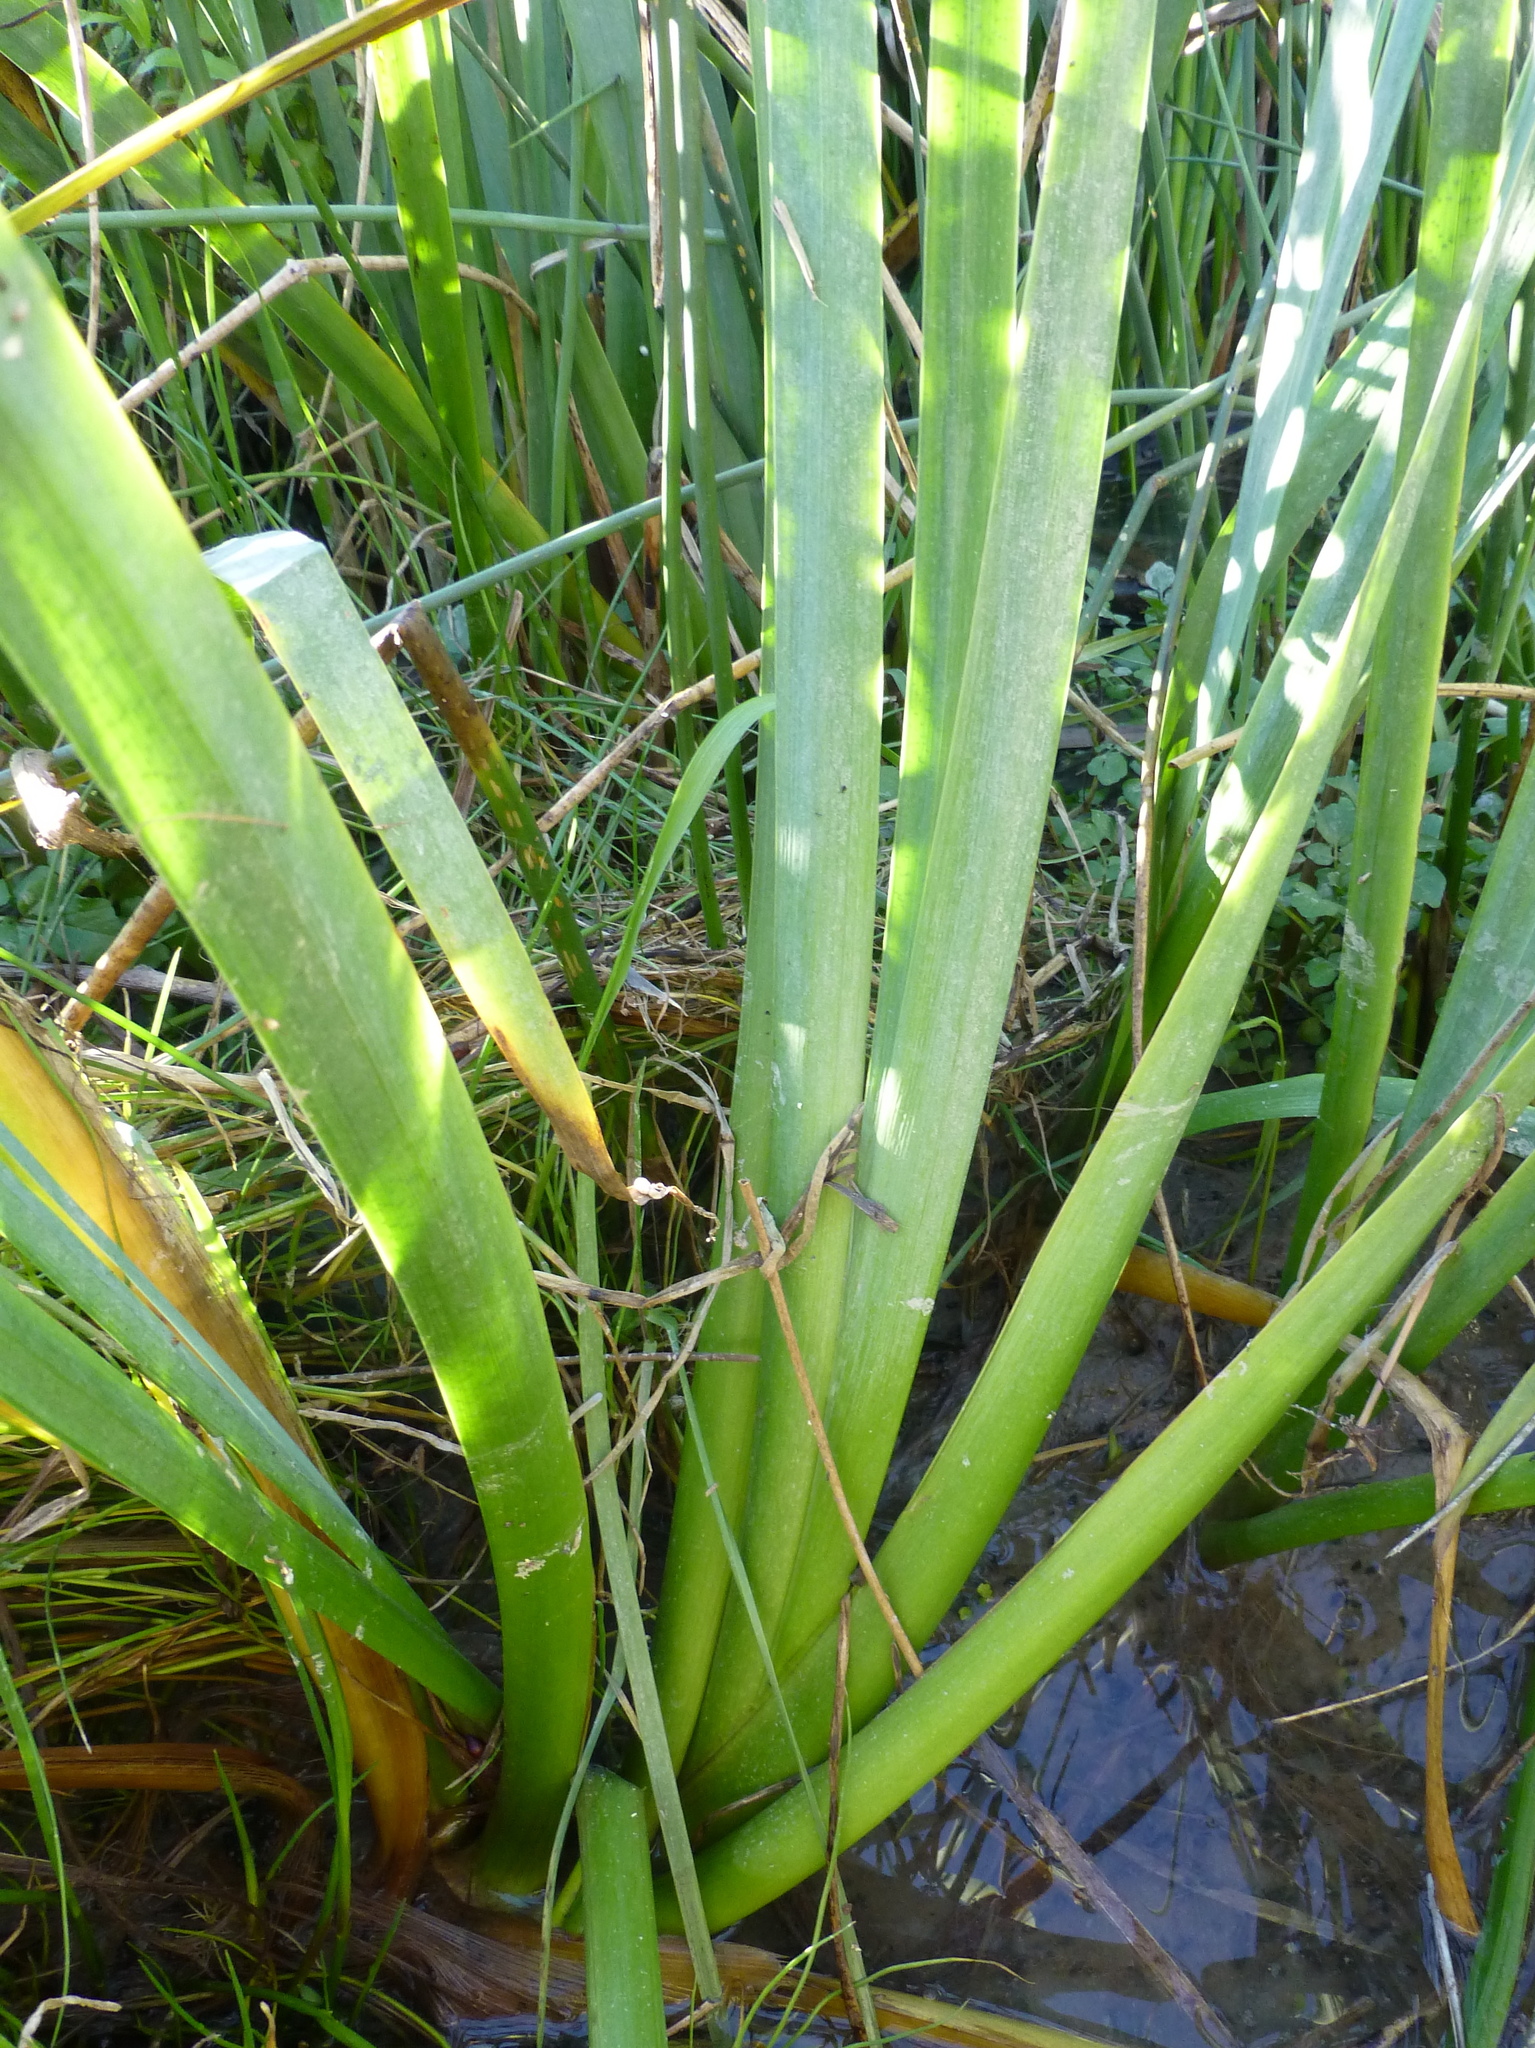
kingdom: Plantae
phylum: Tracheophyta
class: Liliopsida
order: Asparagales
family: Iridaceae
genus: Iris
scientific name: Iris pseudacorus
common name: Yellow flag
